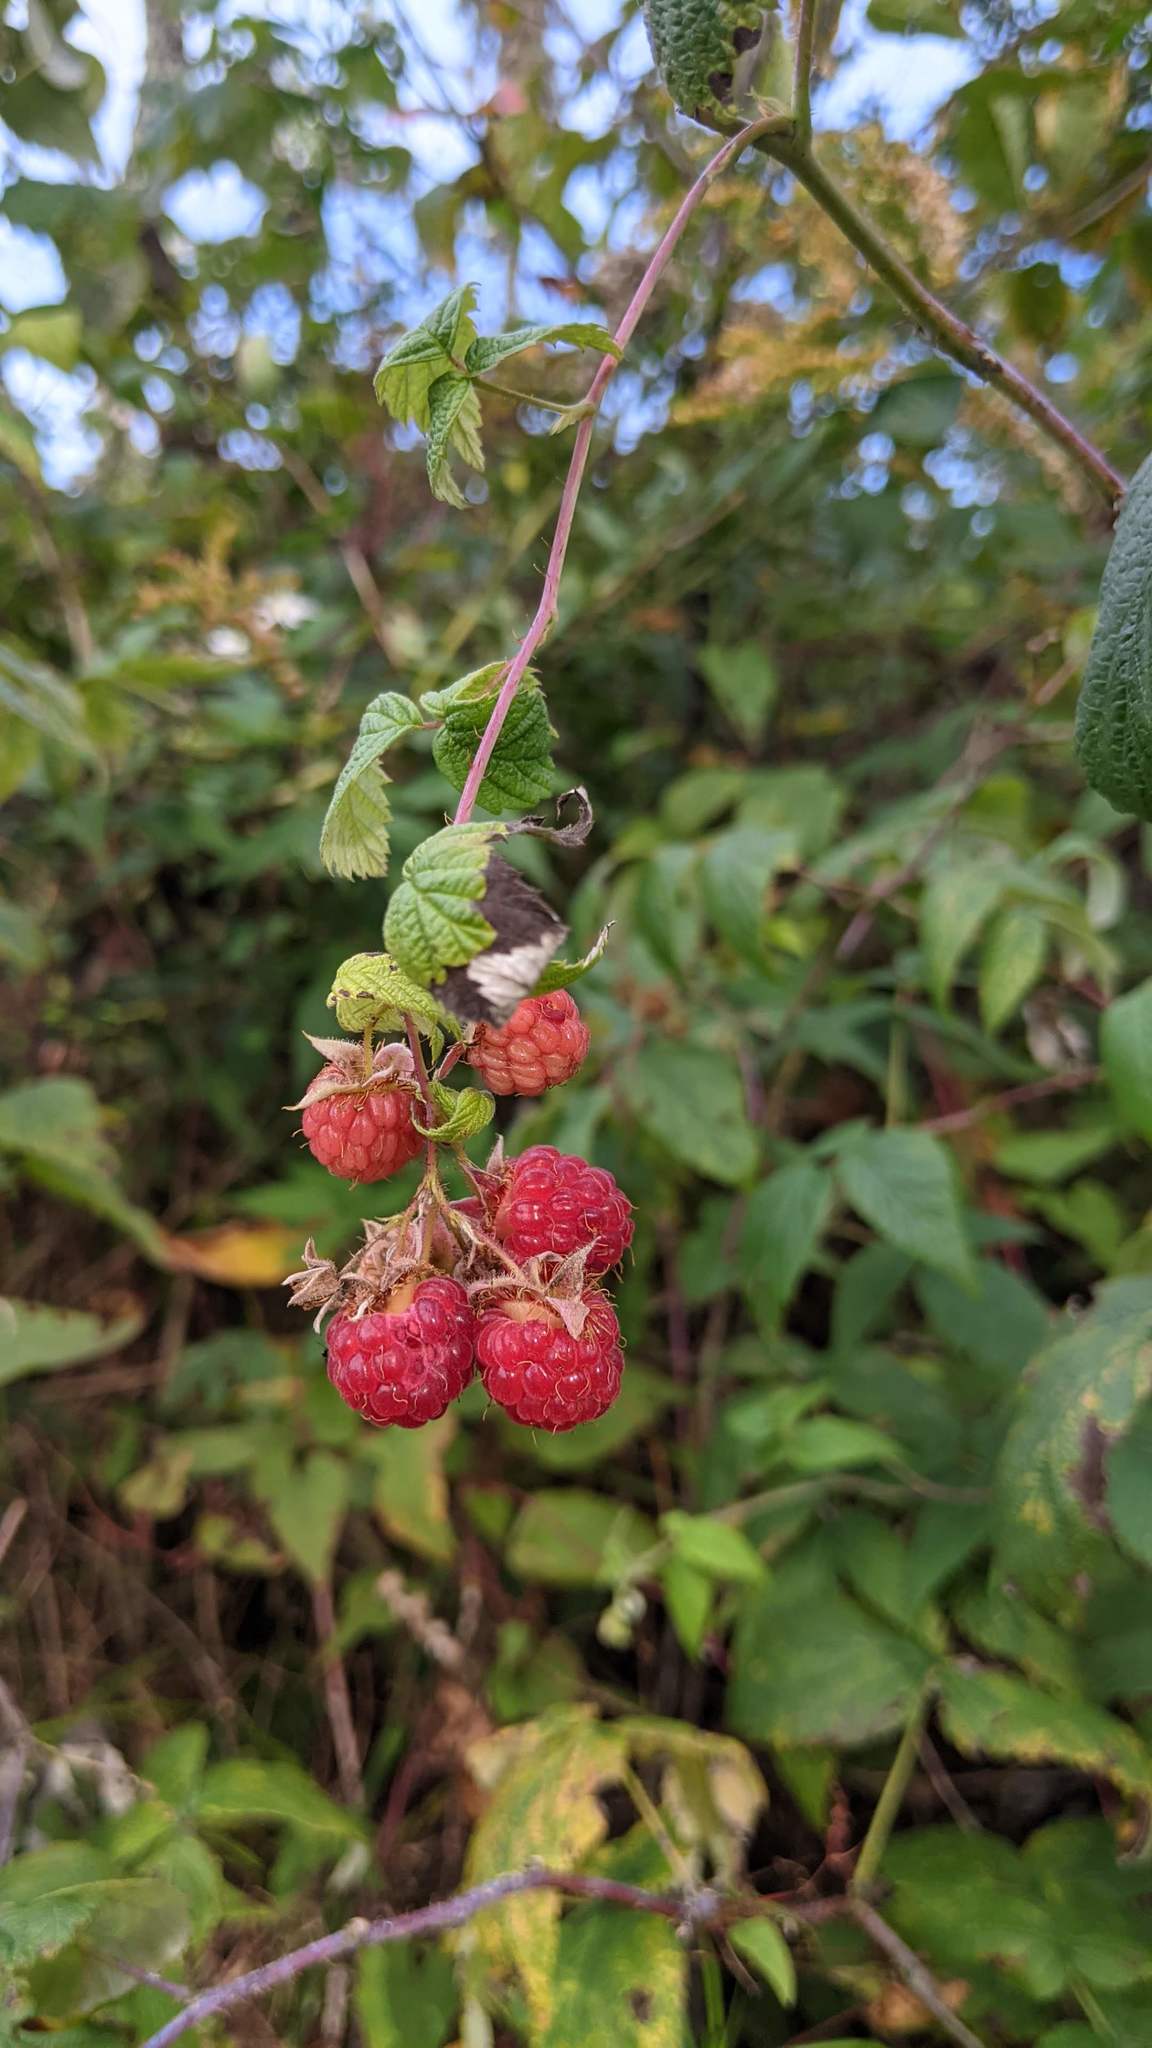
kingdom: Plantae
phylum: Tracheophyta
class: Magnoliopsida
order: Rosales
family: Rosaceae
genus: Rubus
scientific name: Rubus idaeus
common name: Raspberry
